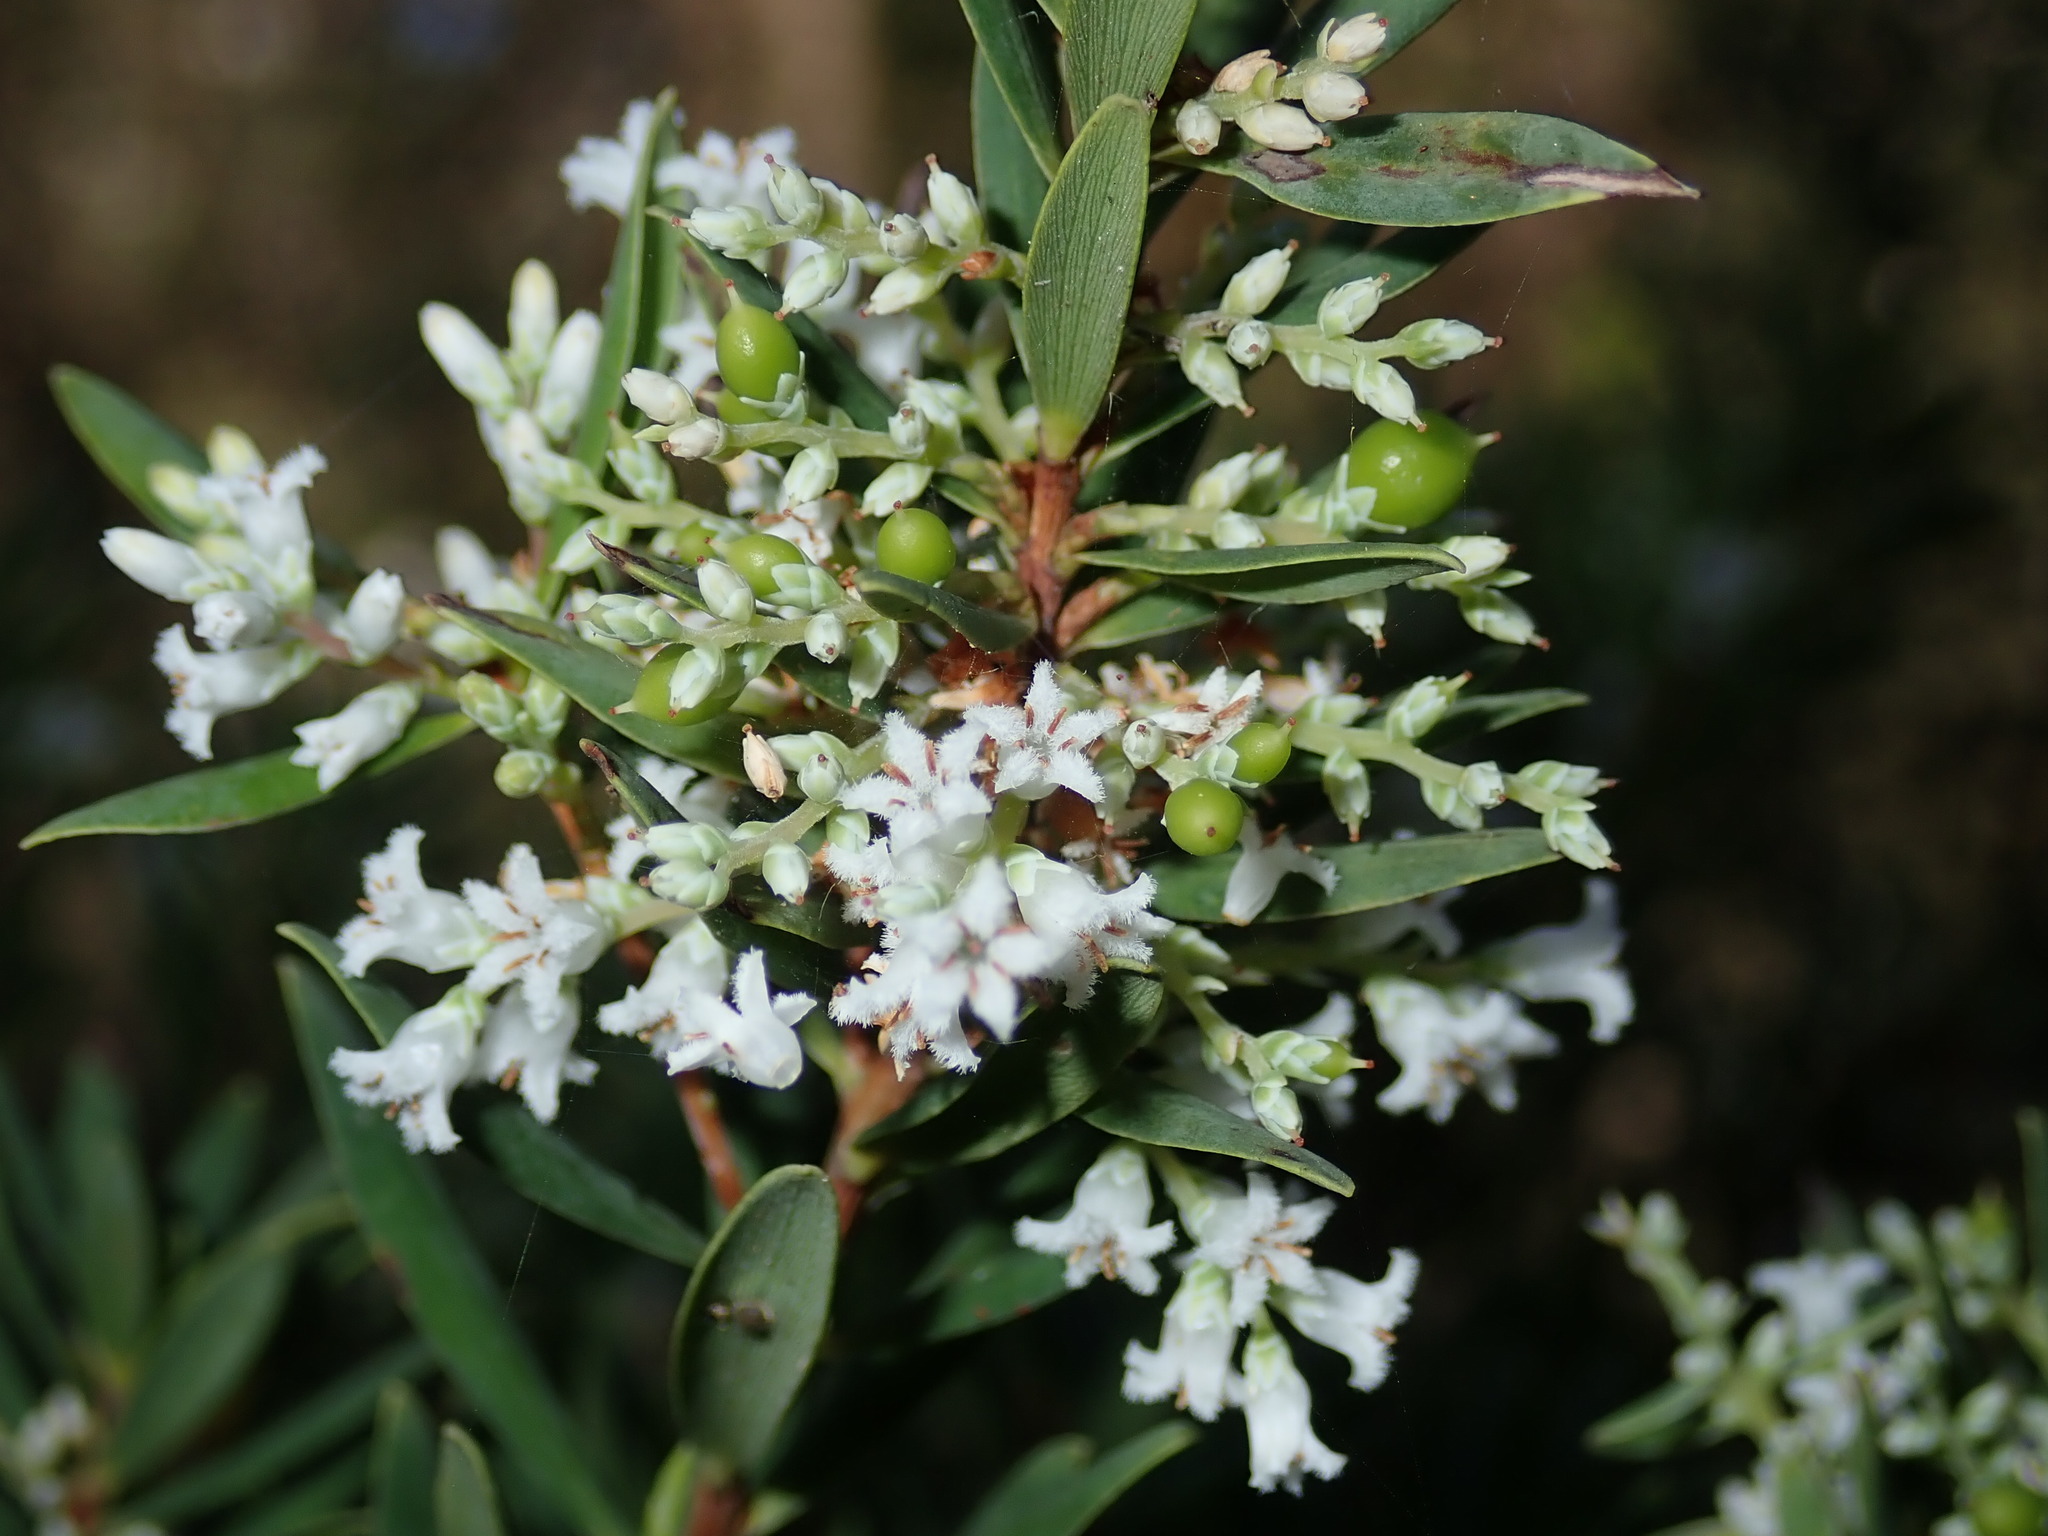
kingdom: Plantae
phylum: Tracheophyta
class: Magnoliopsida
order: Ericales
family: Ericaceae
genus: Leptecophylla
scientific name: Leptecophylla parvifolia
